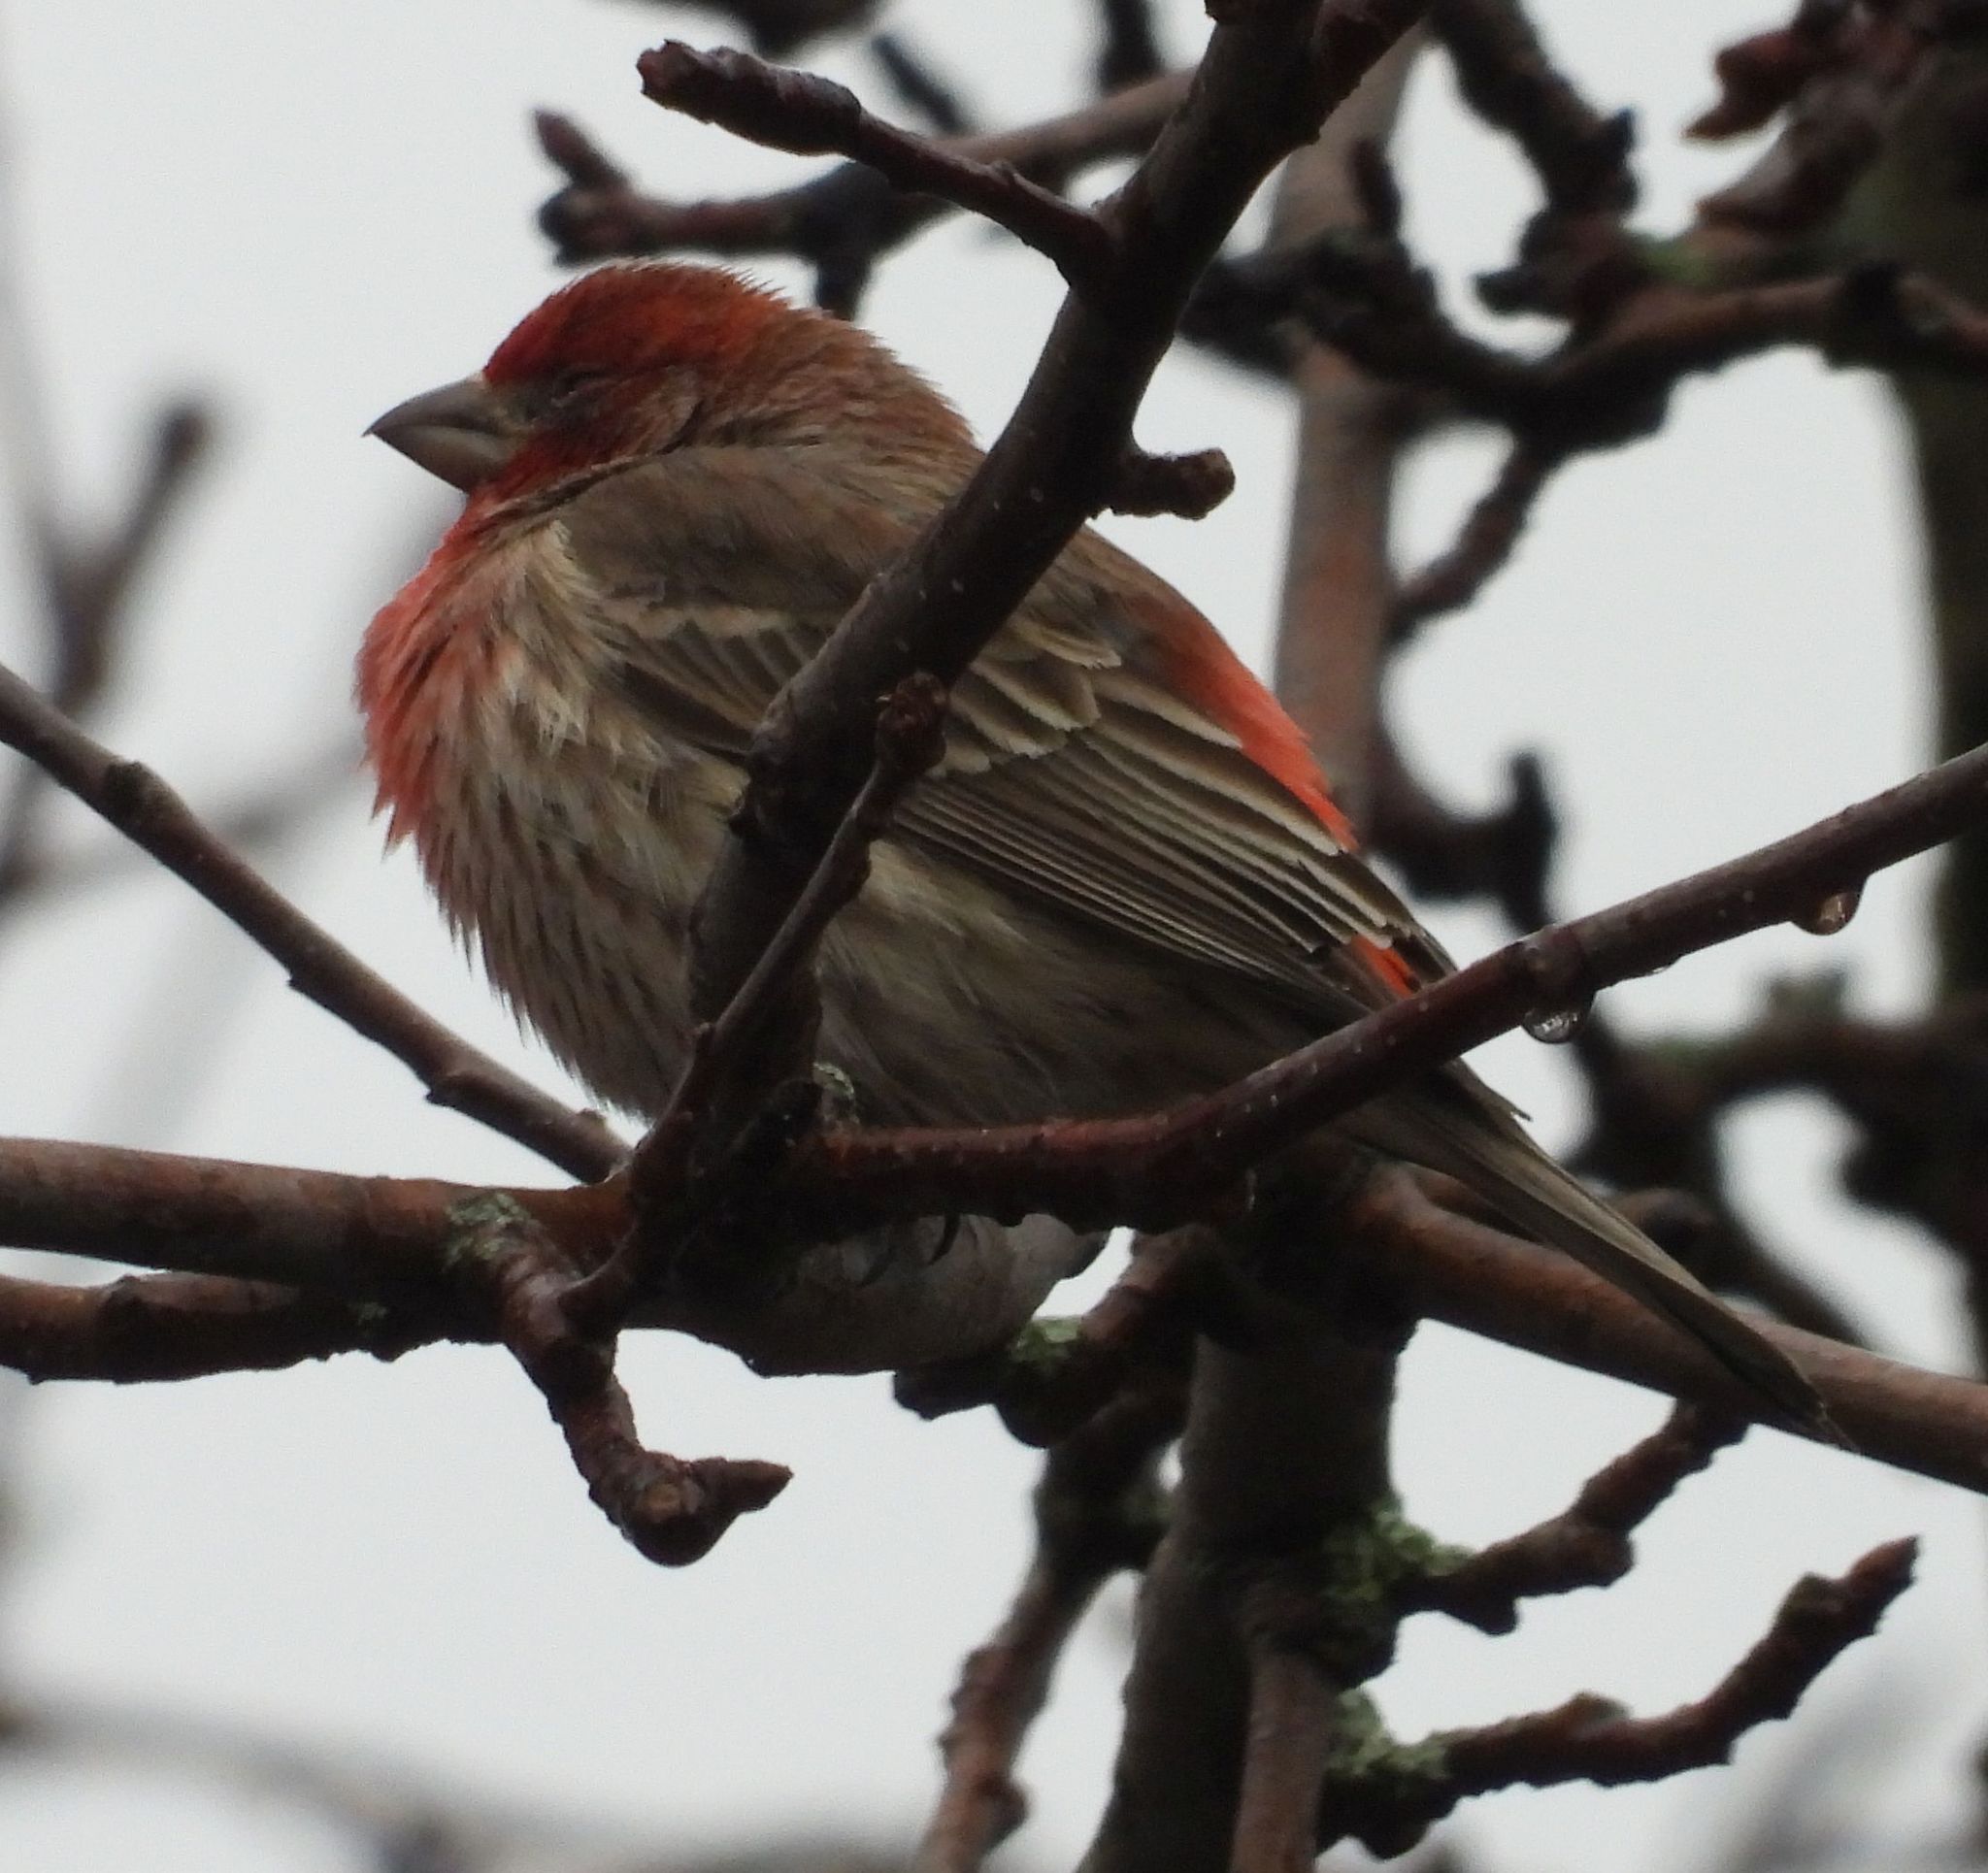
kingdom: Animalia
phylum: Chordata
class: Aves
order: Passeriformes
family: Fringillidae
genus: Haemorhous
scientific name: Haemorhous mexicanus
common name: House finch
